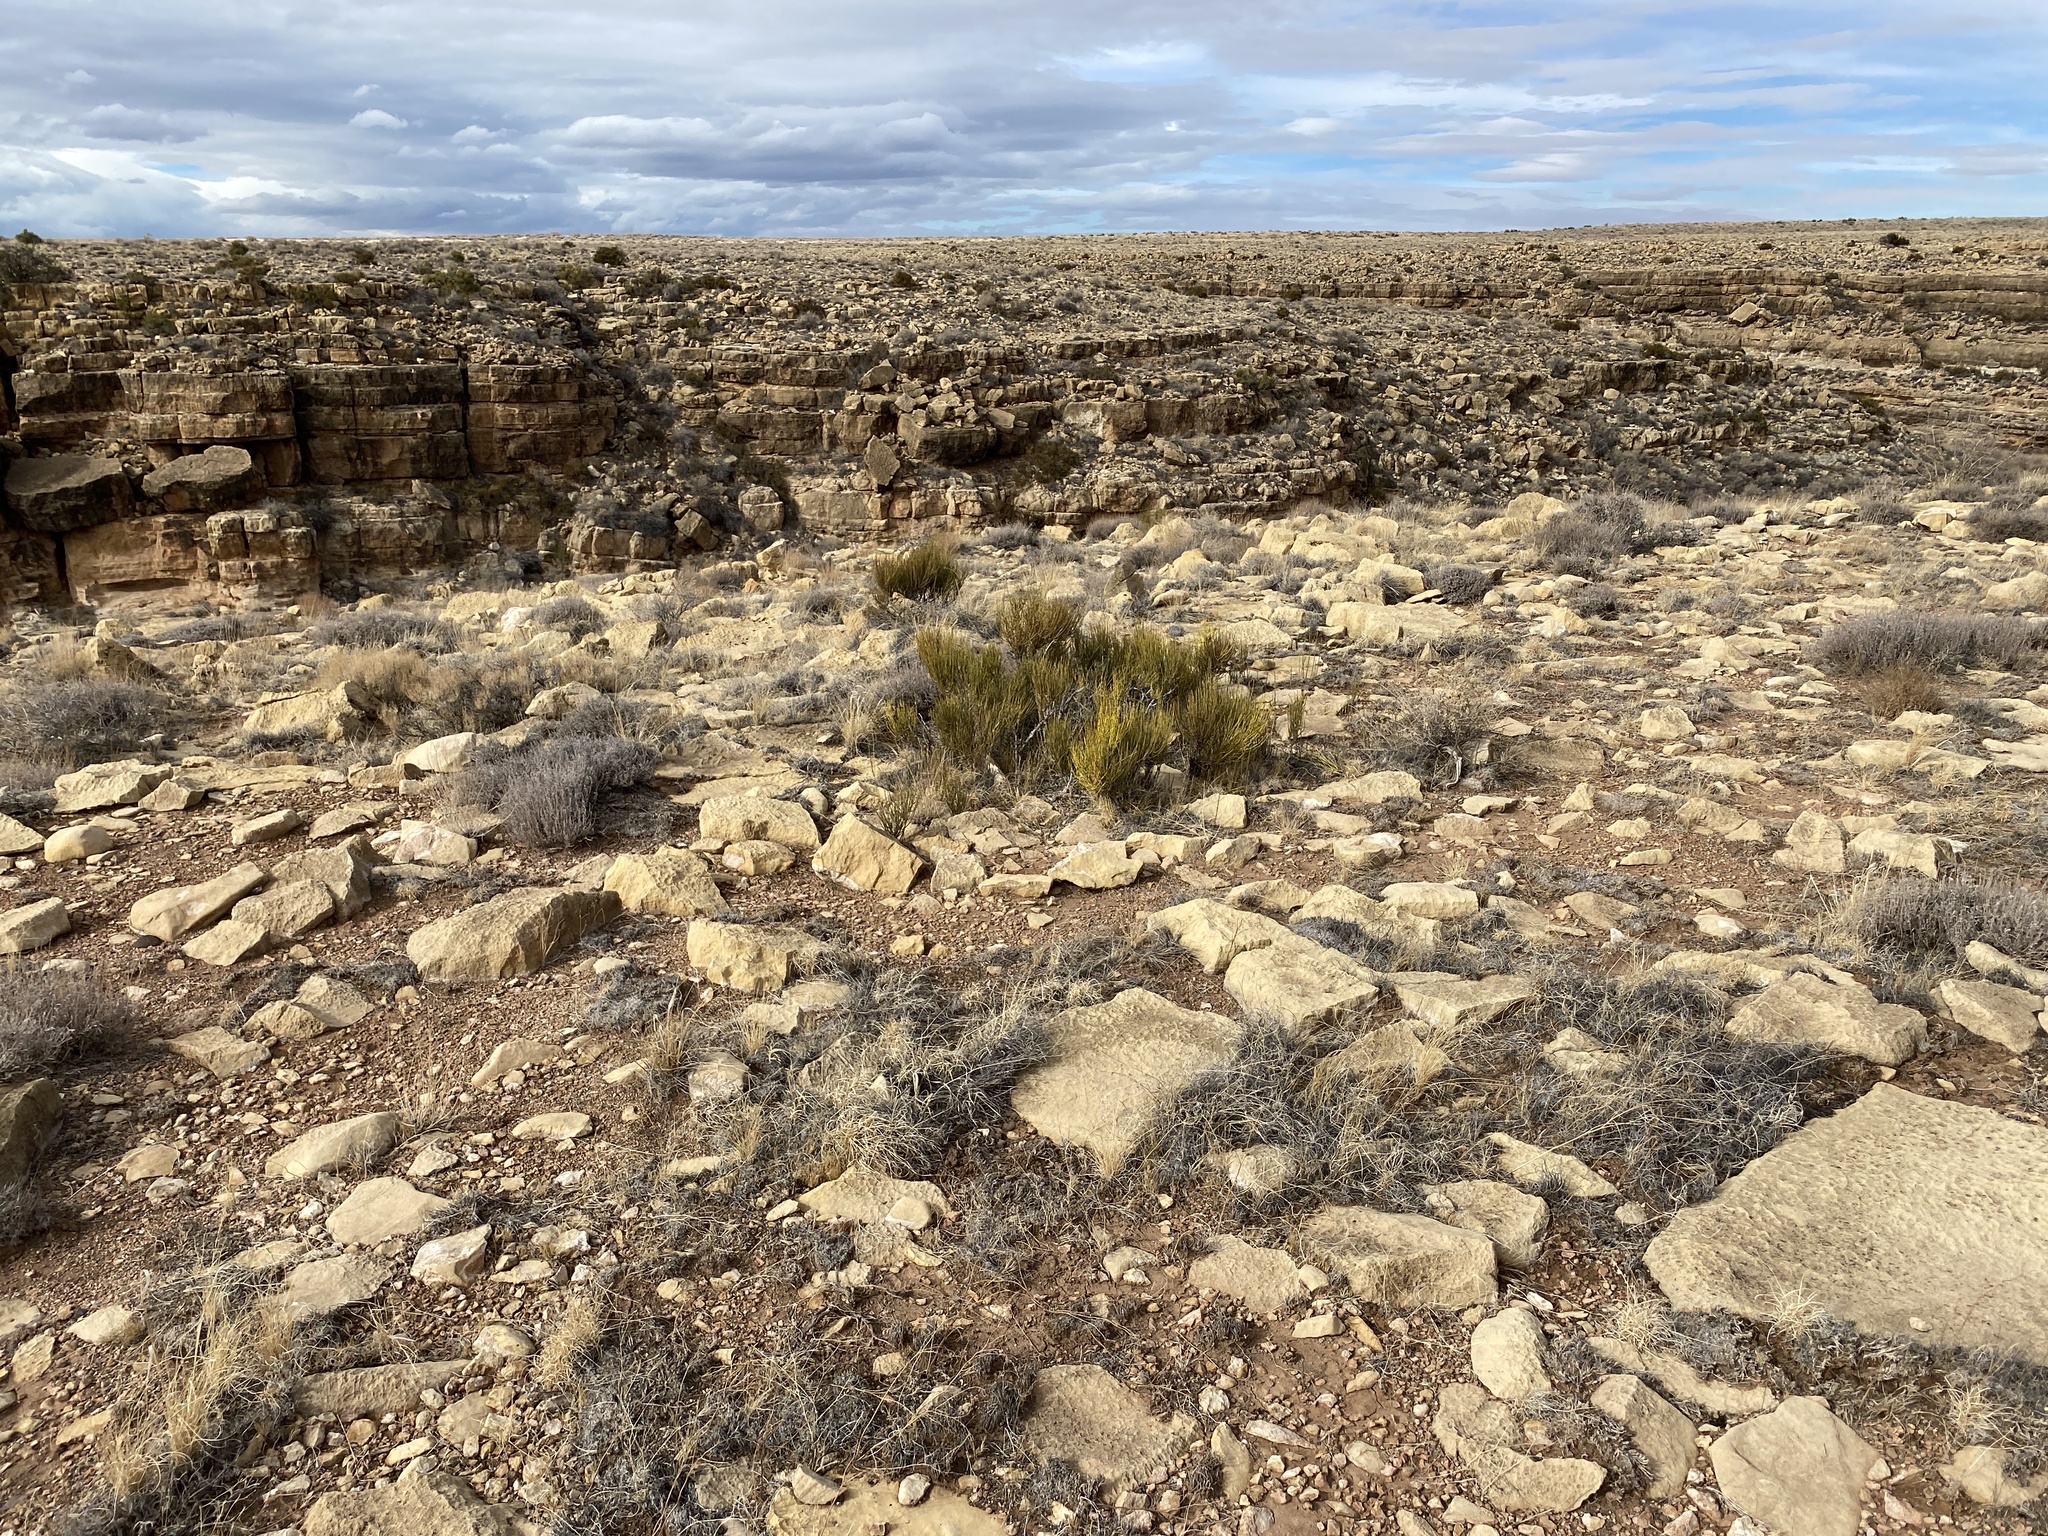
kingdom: Plantae
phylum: Tracheophyta
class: Gnetopsida
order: Ephedrales
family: Ephedraceae
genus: Ephedra
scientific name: Ephedra viridis
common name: Green ephedra
